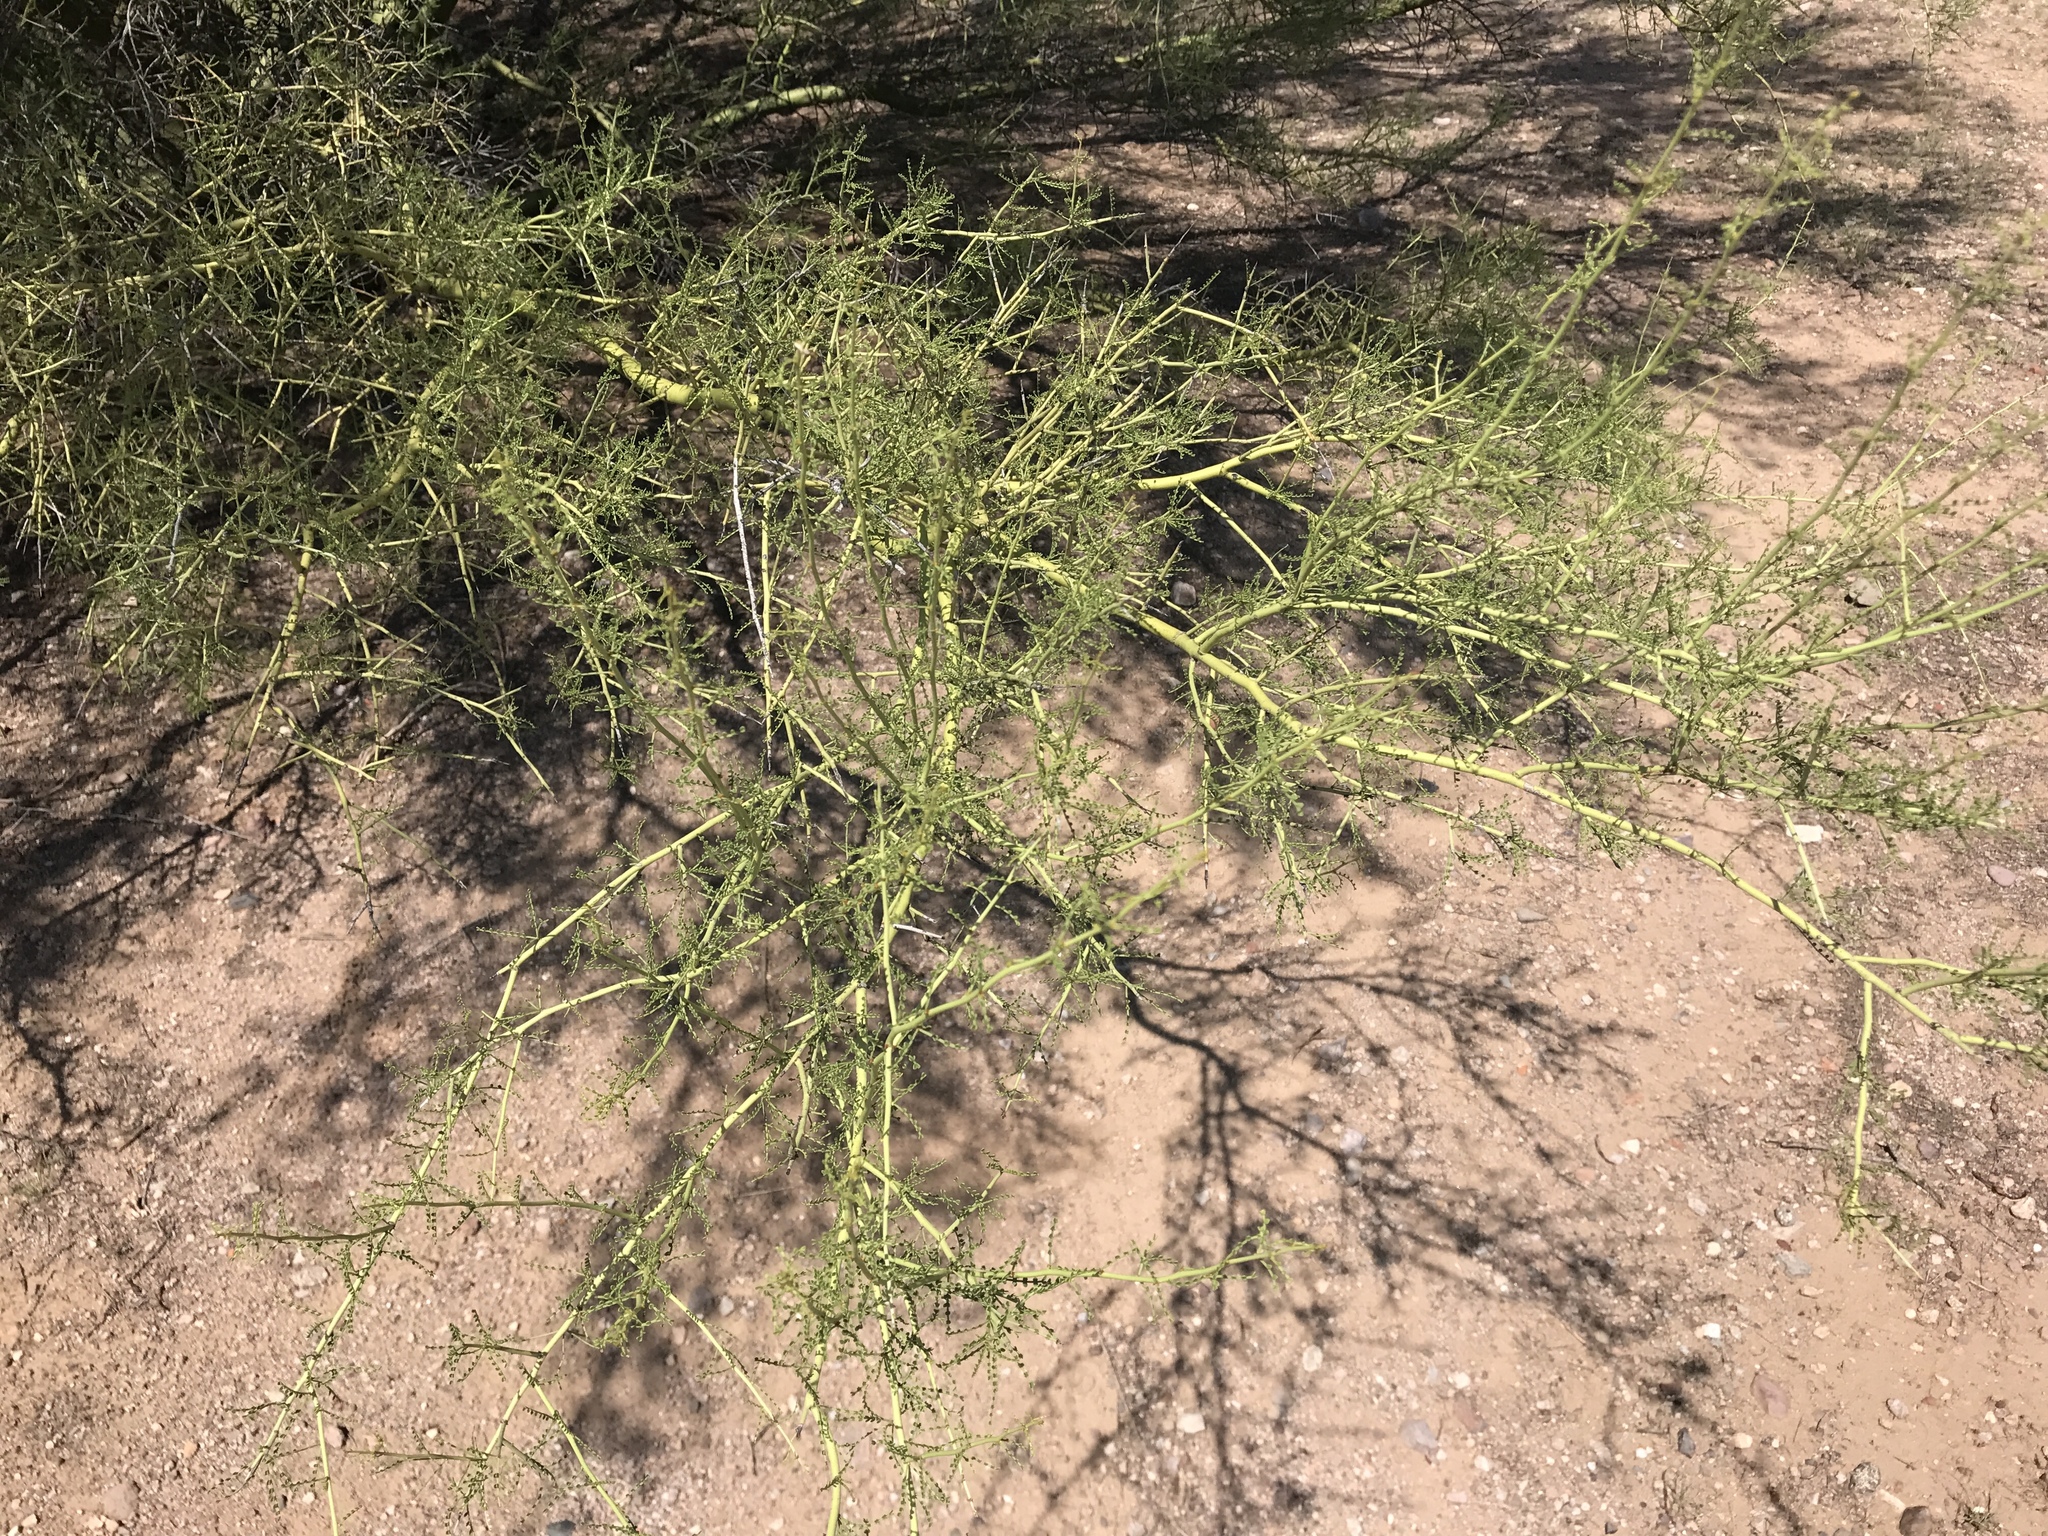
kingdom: Plantae
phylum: Tracheophyta
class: Magnoliopsida
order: Fabales
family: Fabaceae
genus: Parkinsonia
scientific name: Parkinsonia microphylla
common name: Yellow paloverde
